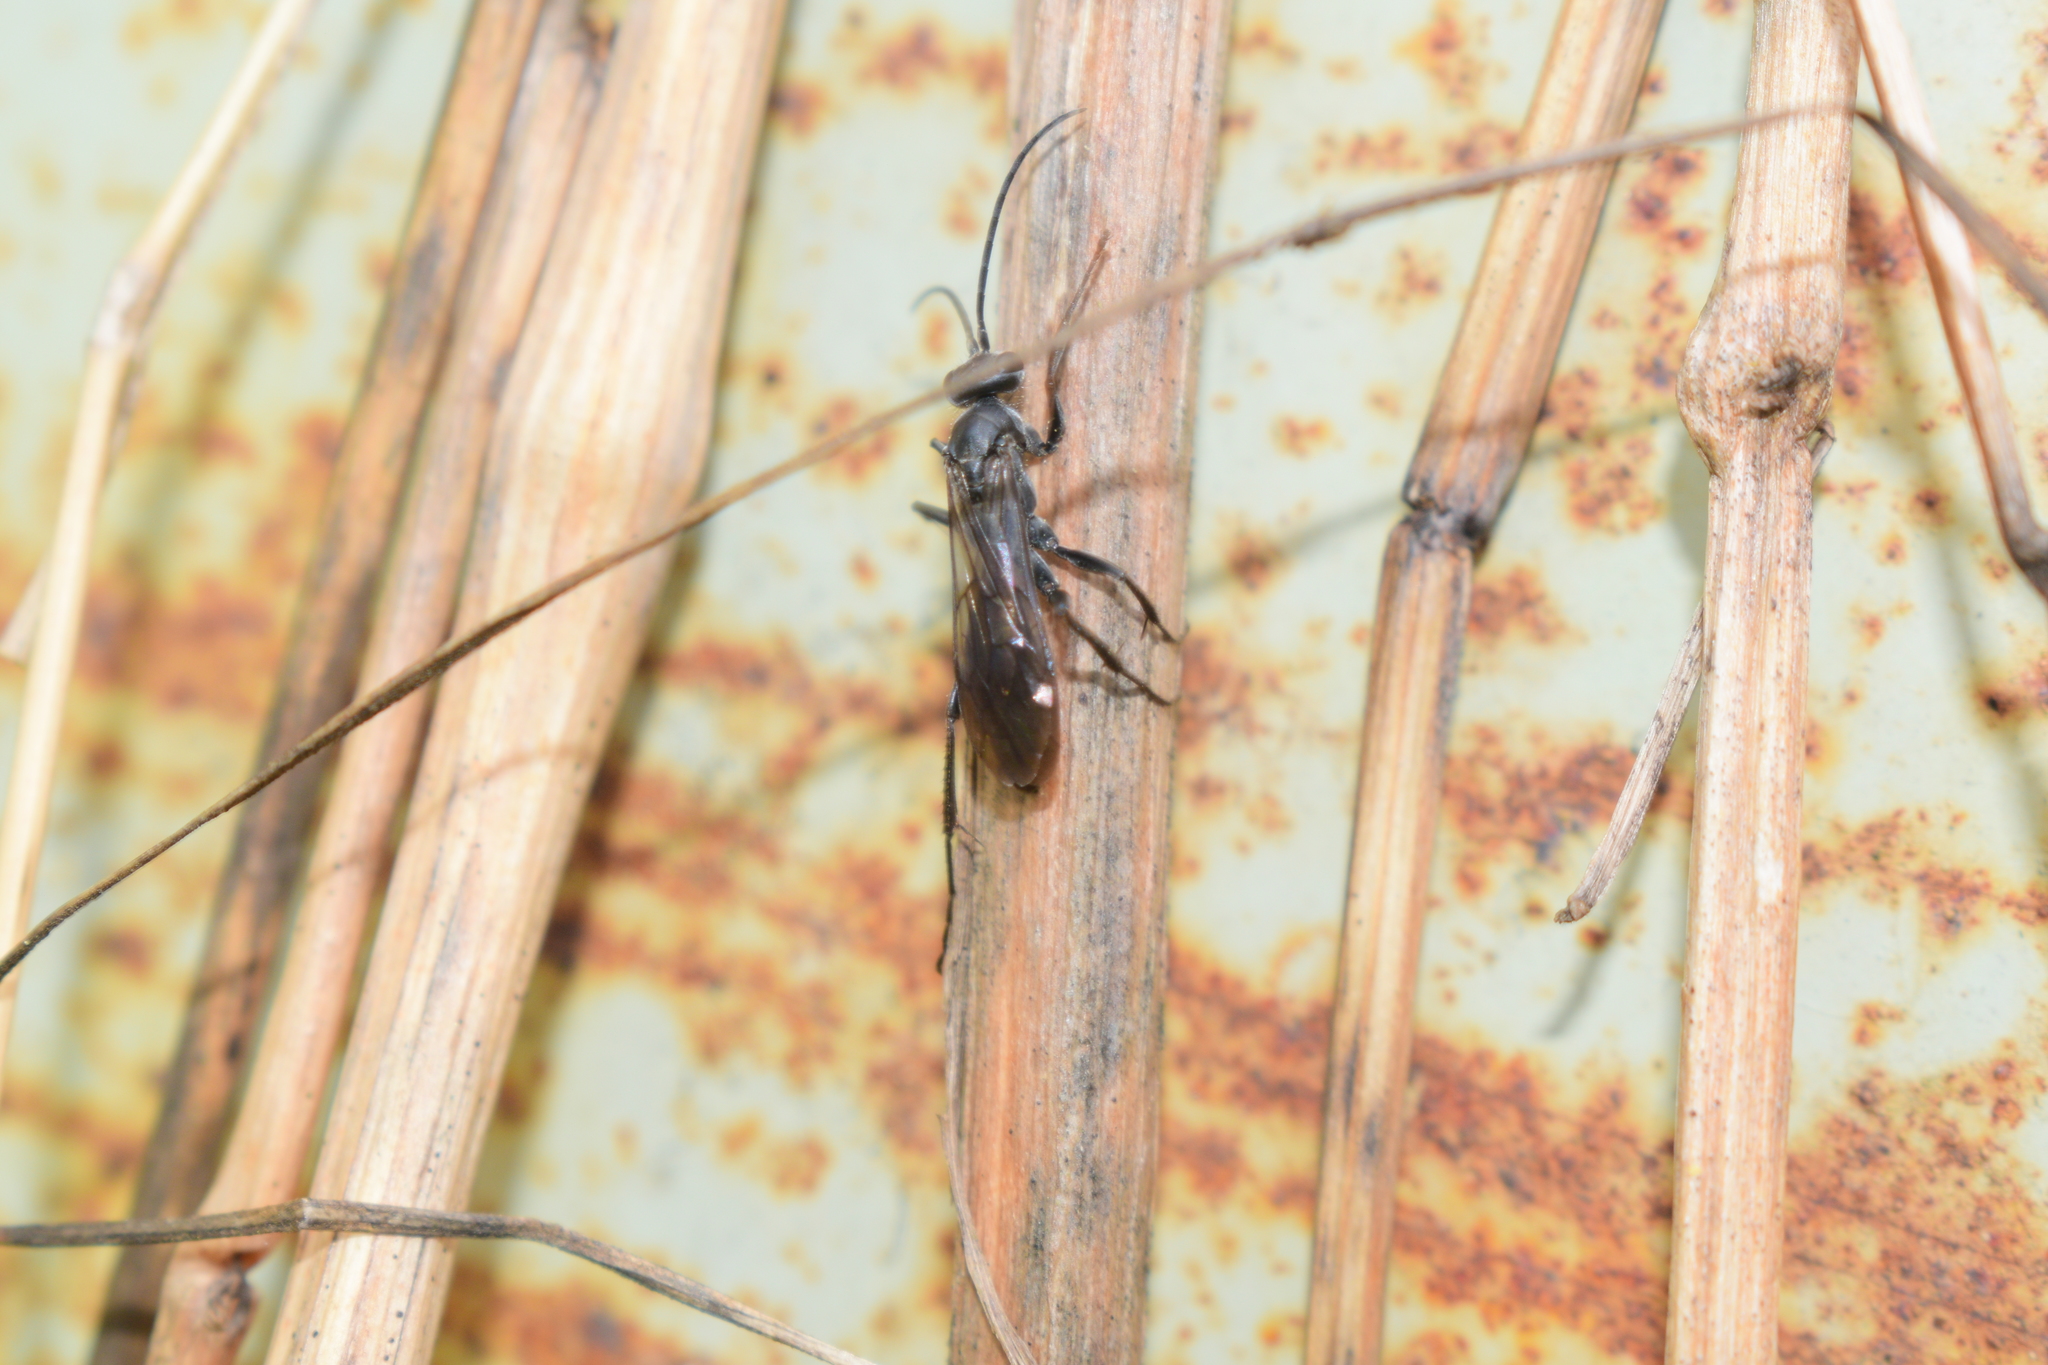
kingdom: Animalia
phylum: Arthropoda
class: Insecta
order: Hymenoptera
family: Pompilidae
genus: Priocnemis
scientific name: Priocnemis minorata
